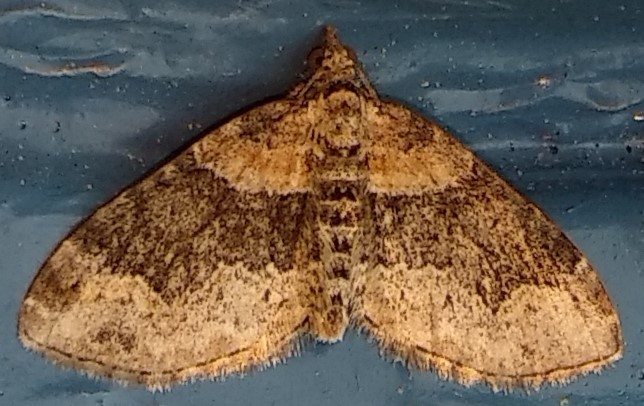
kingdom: Animalia
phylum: Arthropoda
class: Insecta
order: Lepidoptera
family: Geometridae
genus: Xanthorhoe
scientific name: Xanthorhoe ferrugata
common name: Dark-barred twin-spot carpet
